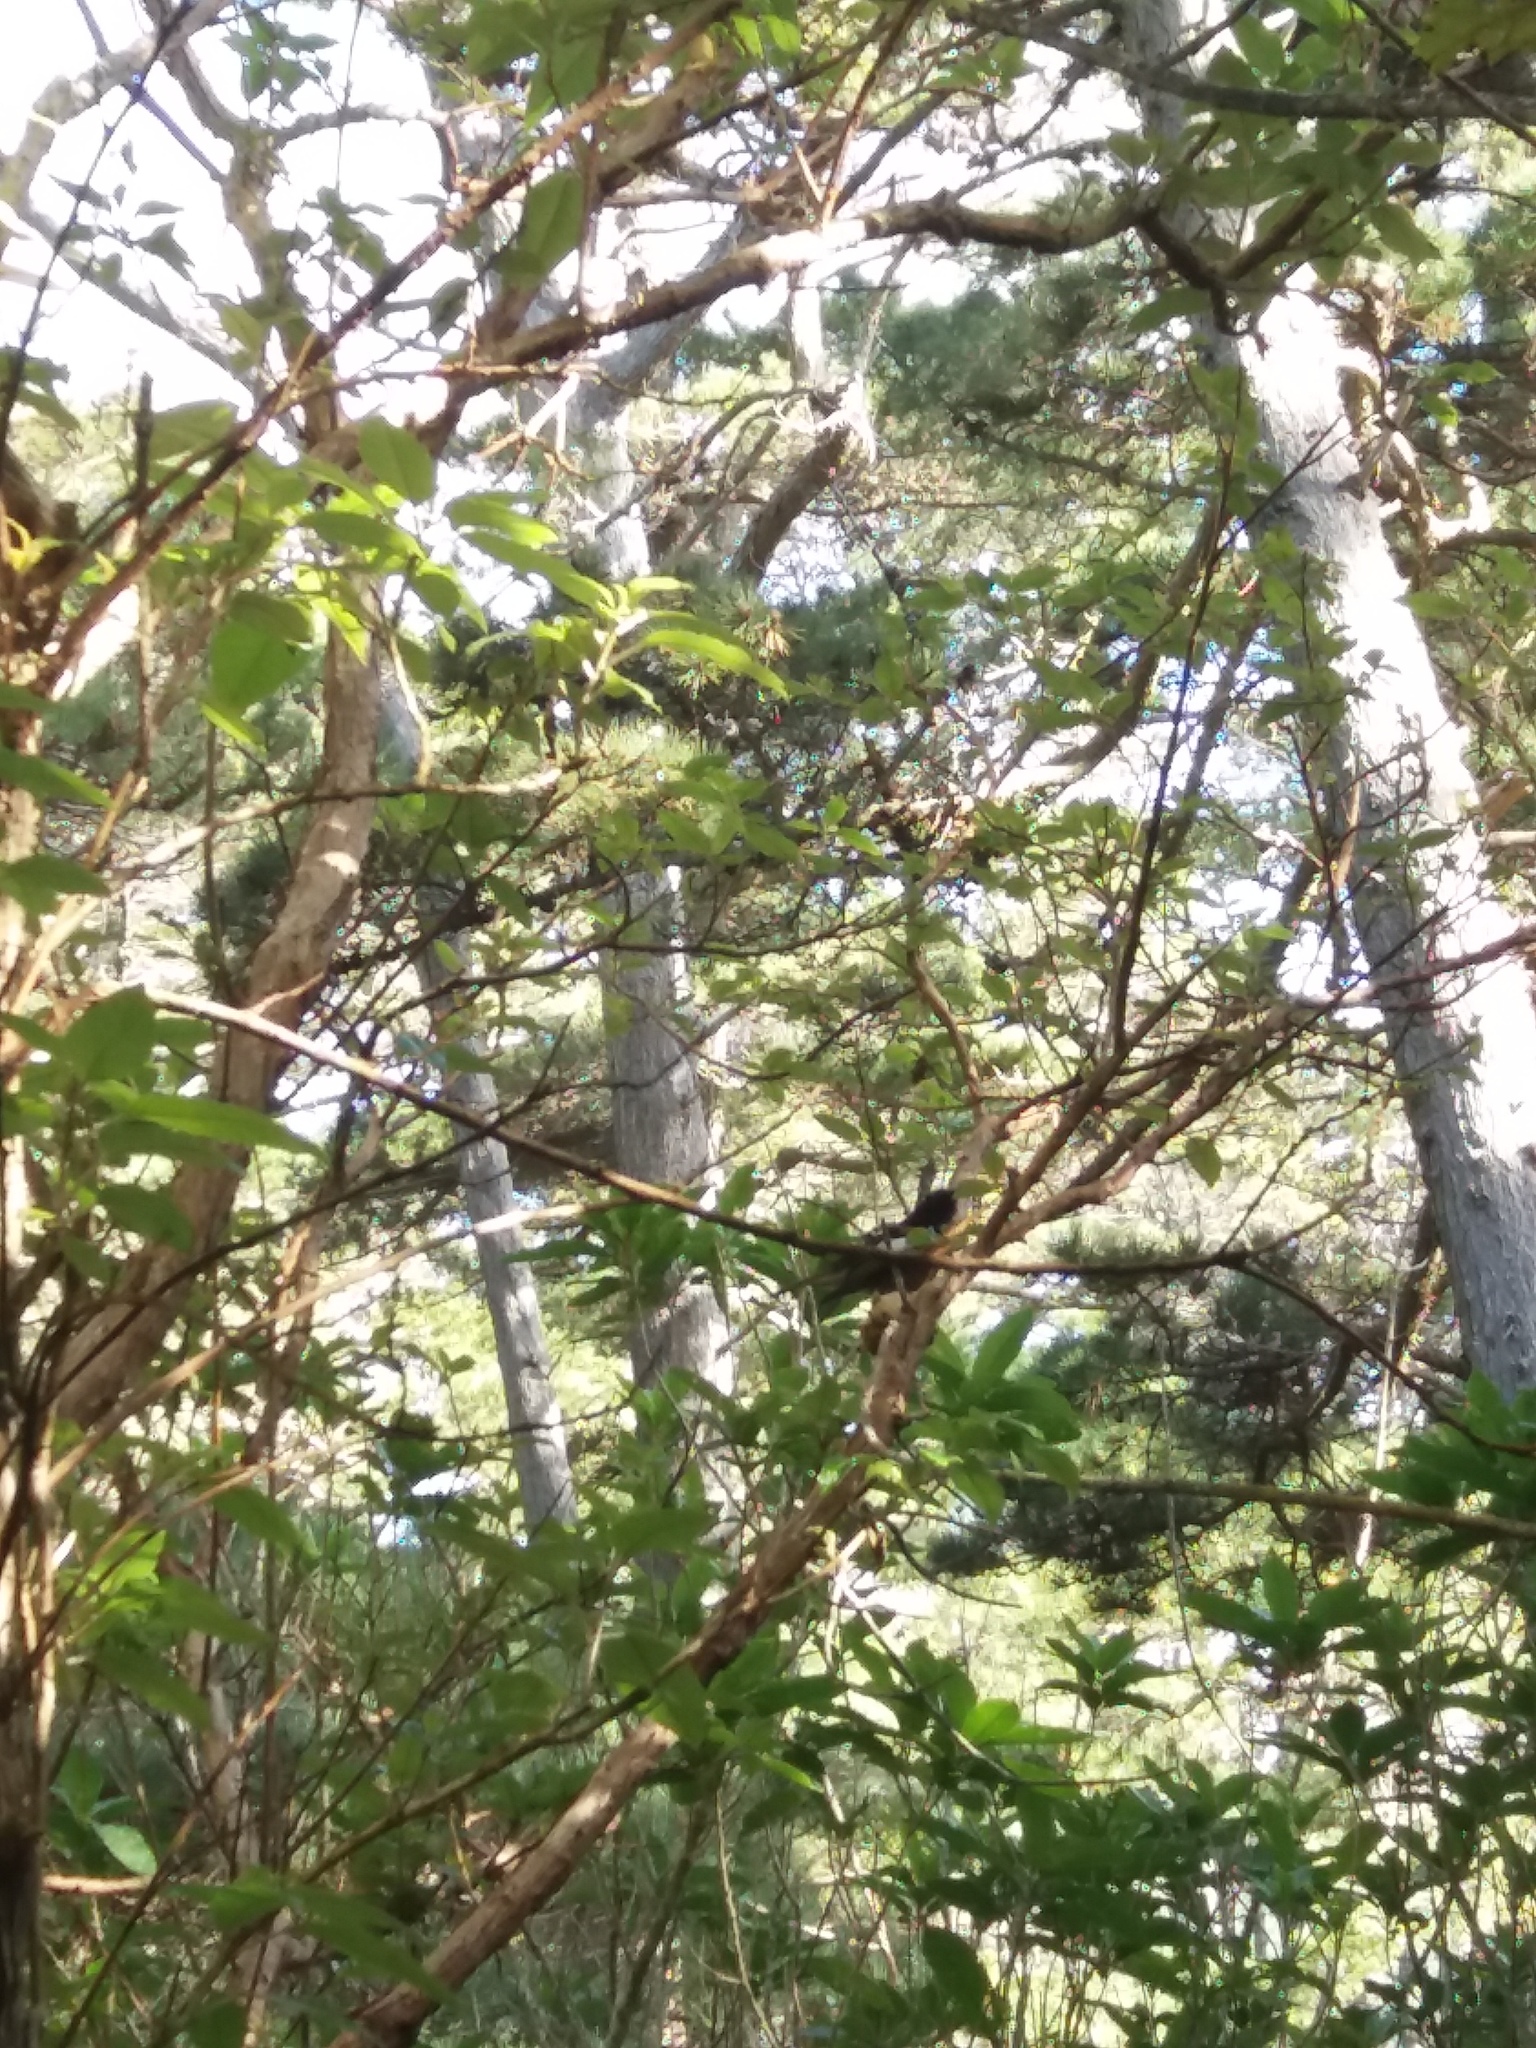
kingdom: Animalia
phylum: Chordata
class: Aves
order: Passeriformes
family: Notiomystidae
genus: Notiomystis
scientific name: Notiomystis cincta
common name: Stitchbird
